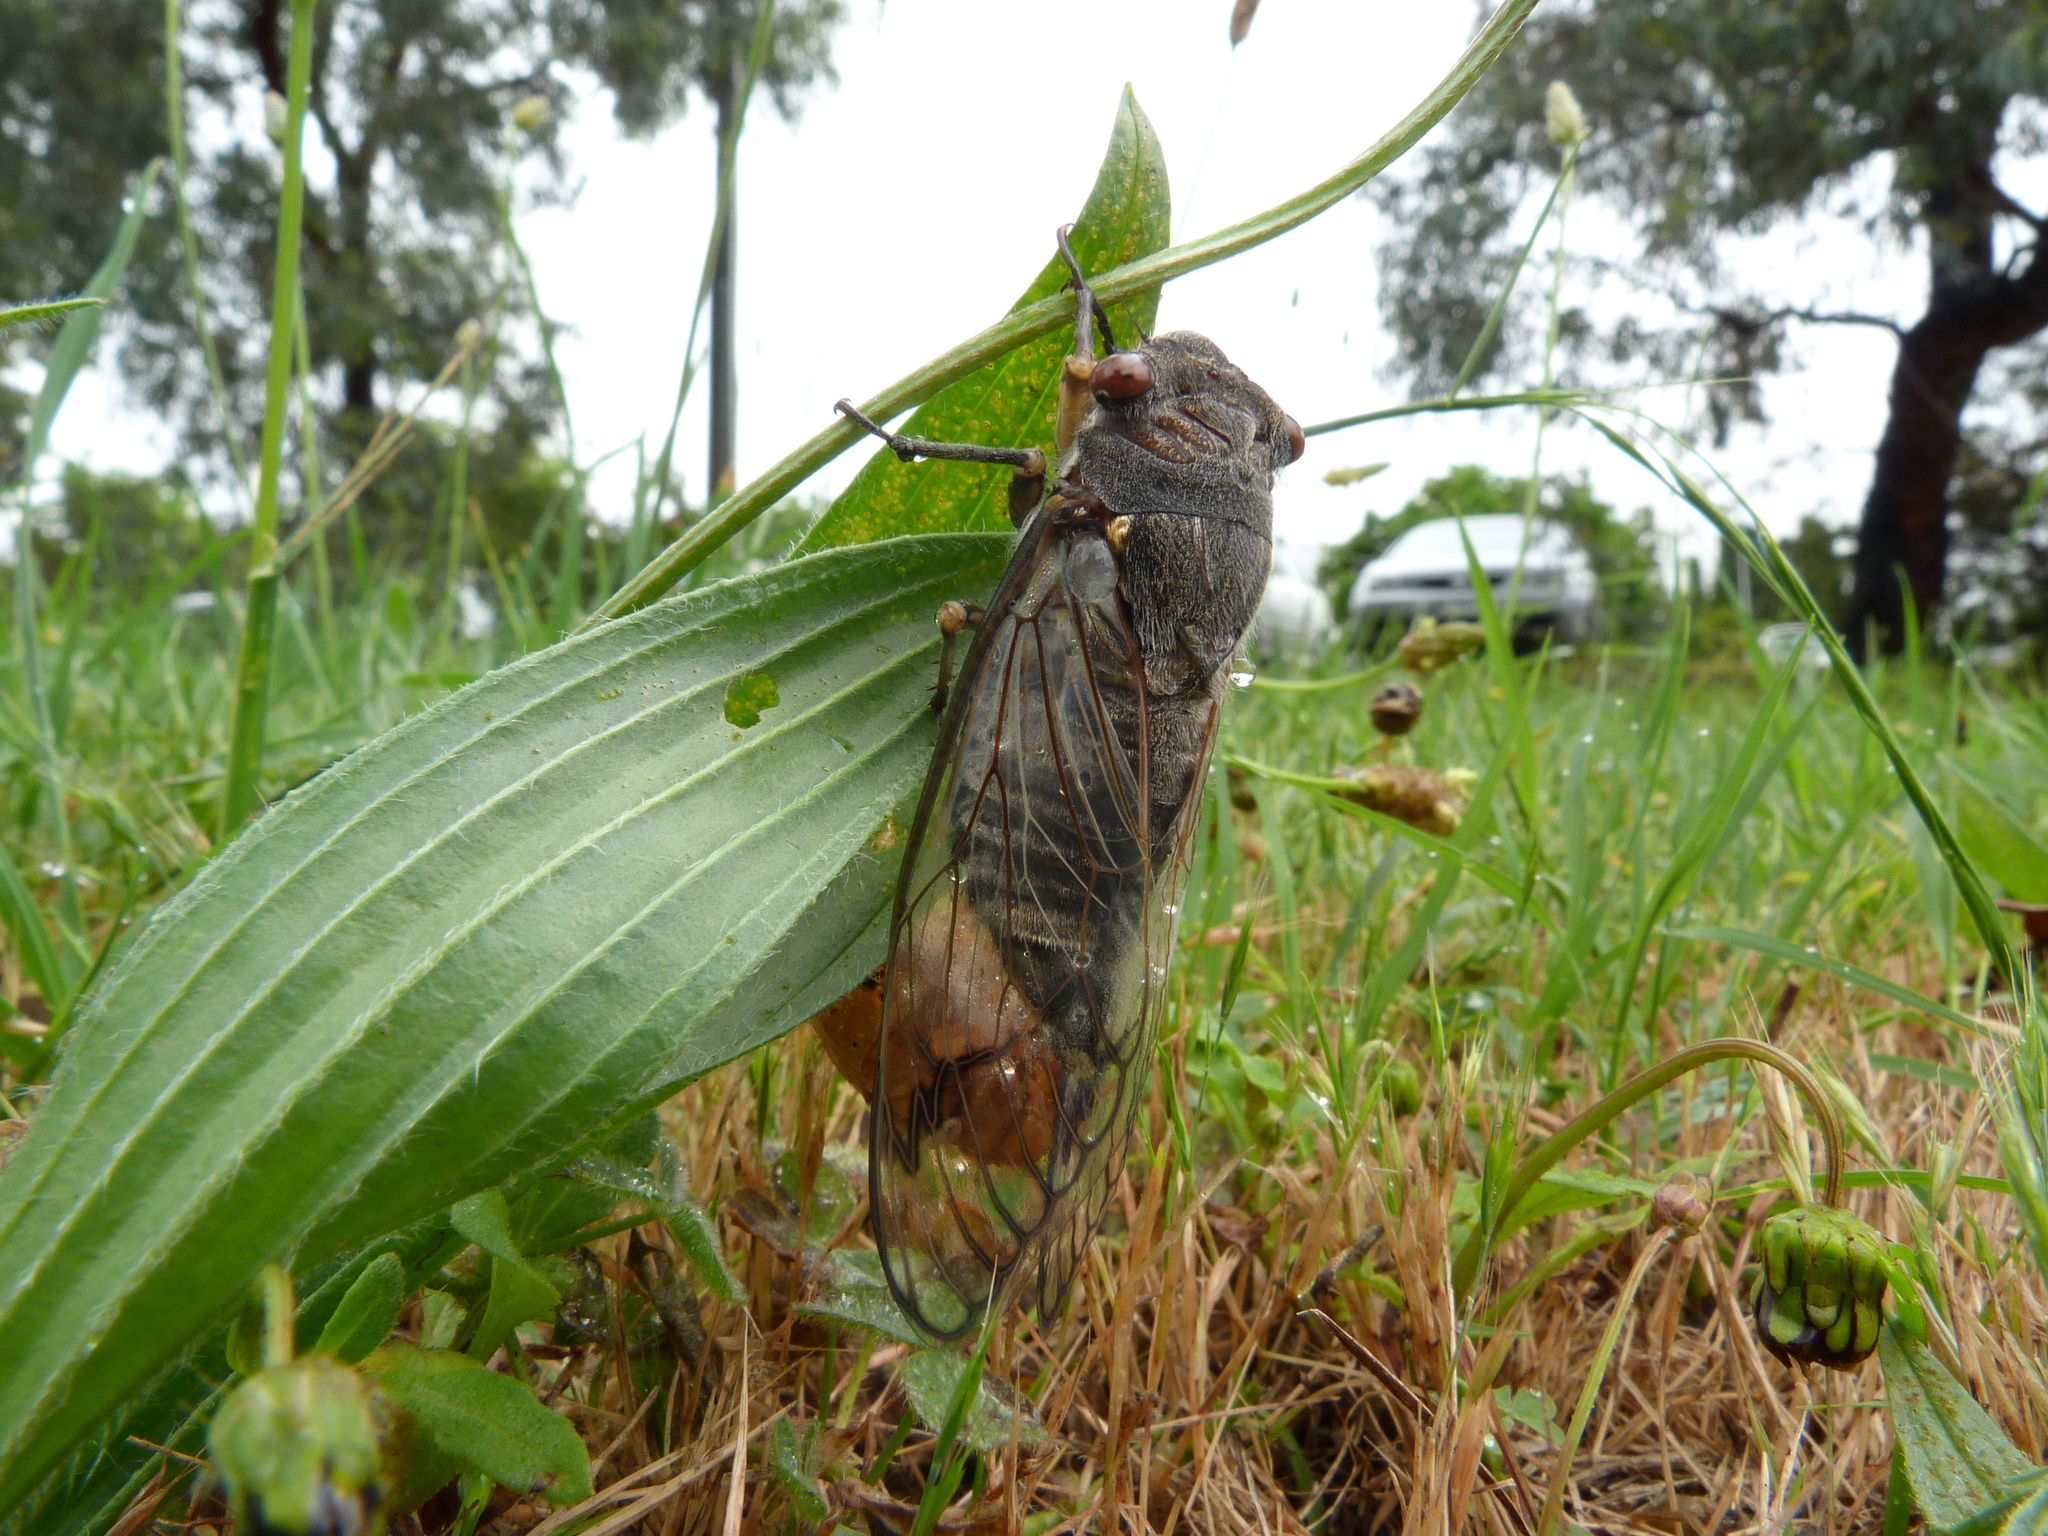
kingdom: Animalia
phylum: Arthropoda
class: Insecta
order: Hemiptera
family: Cicadidae
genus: Psaltoda
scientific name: Psaltoda moerens
